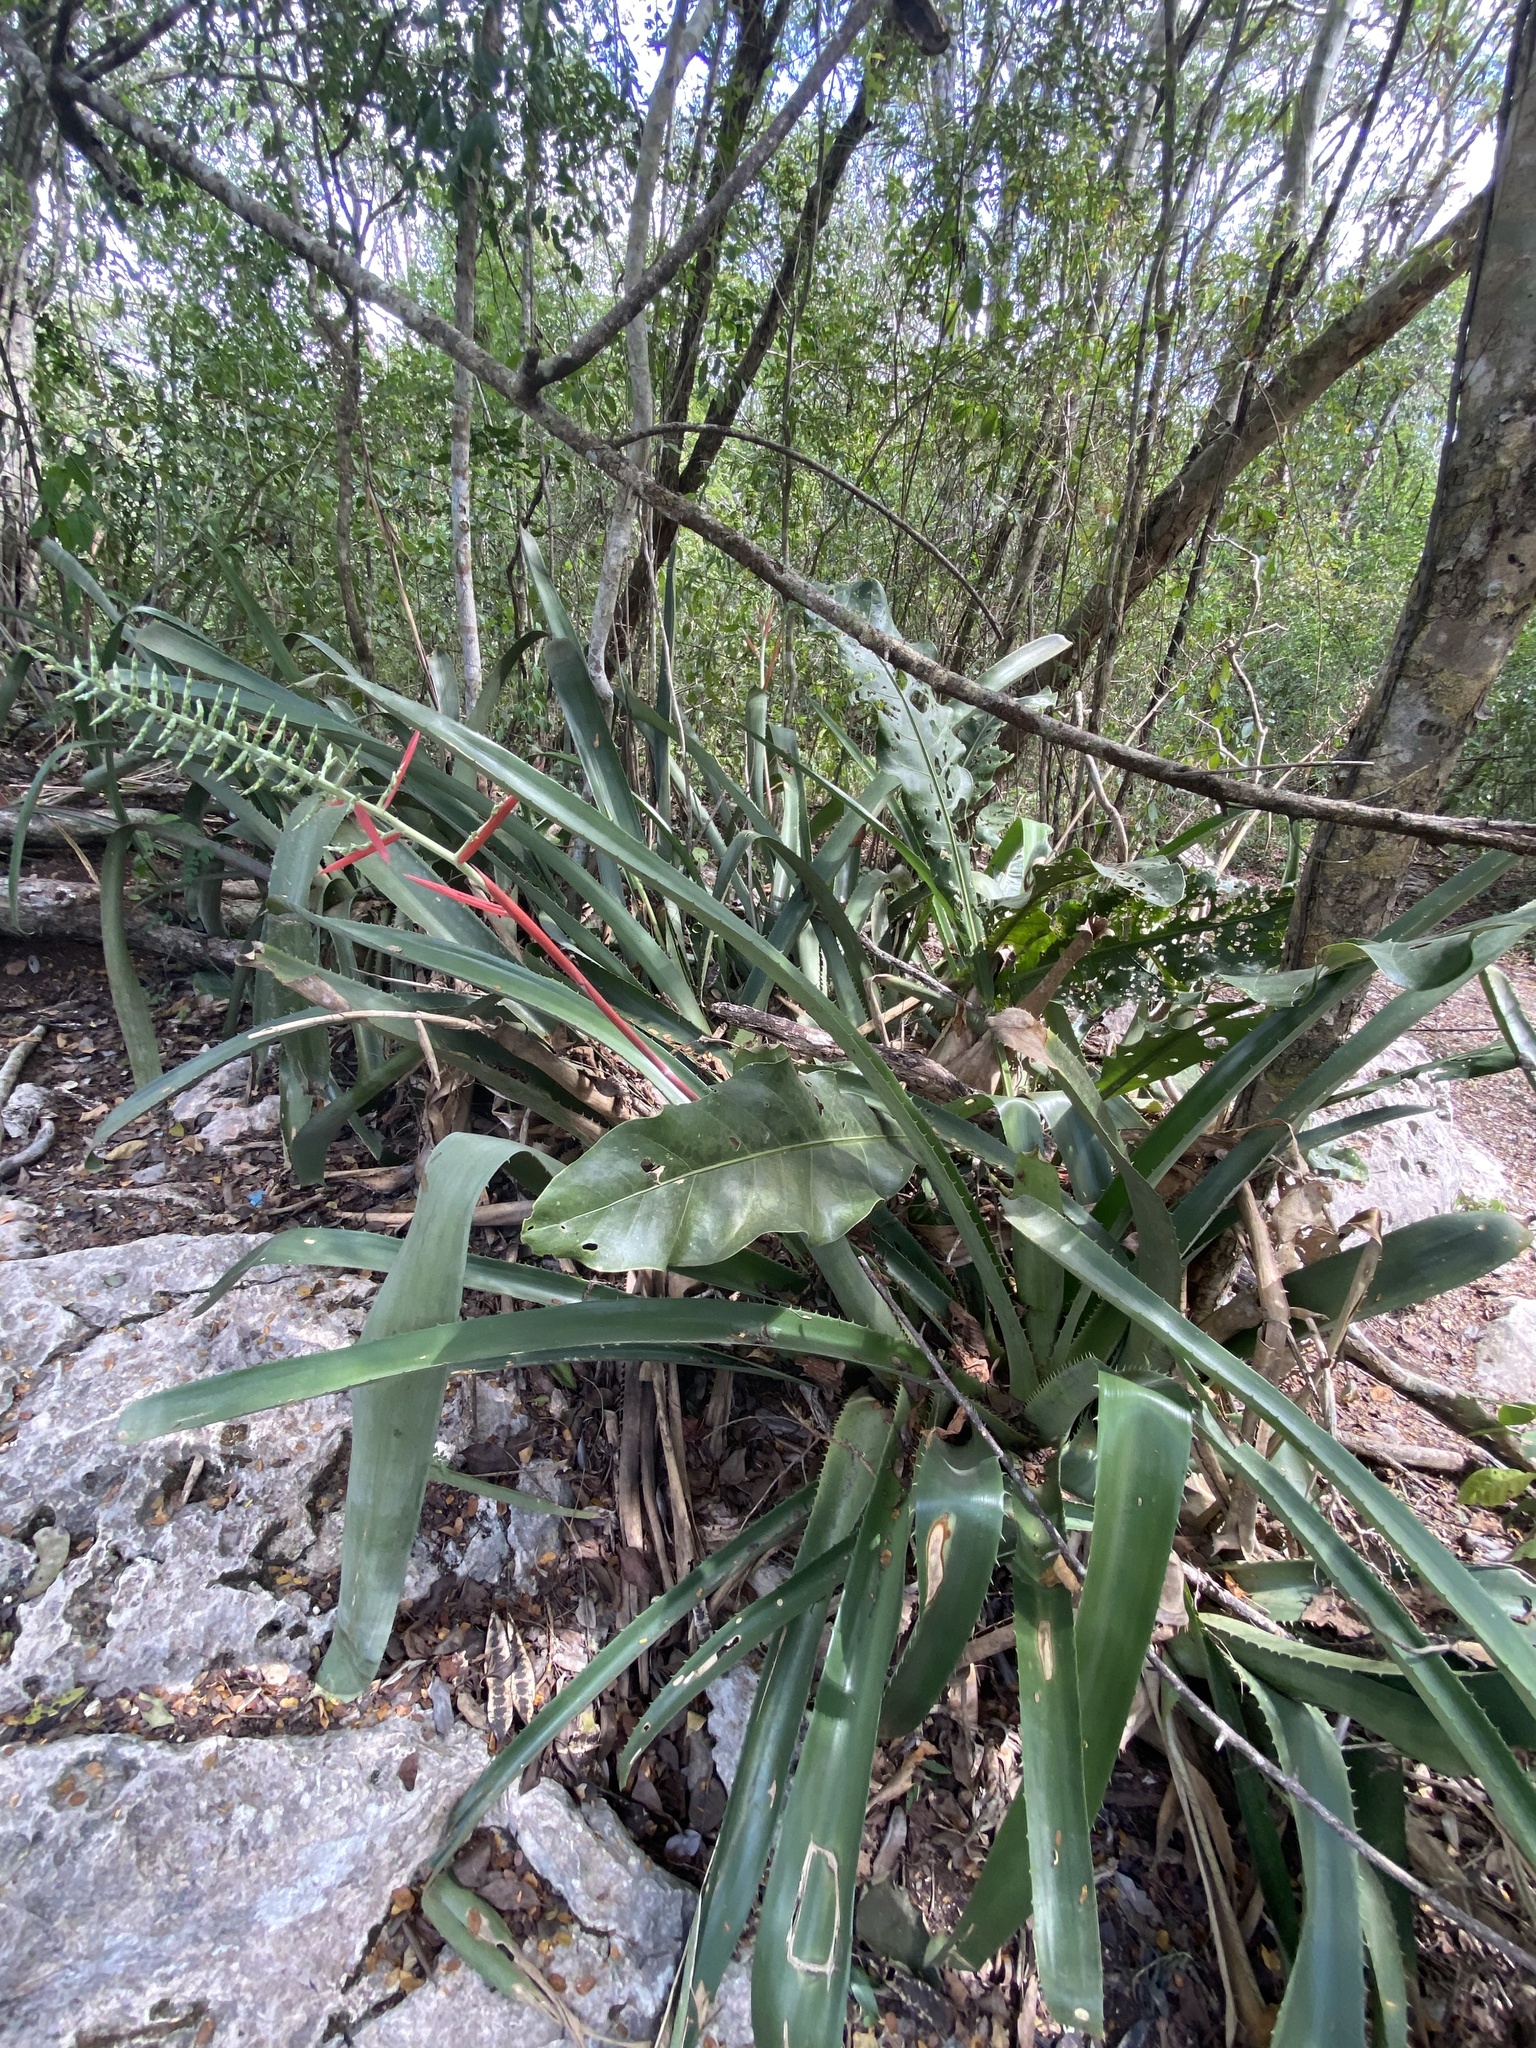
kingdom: Plantae
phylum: Tracheophyta
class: Liliopsida
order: Poales
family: Bromeliaceae
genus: Aechmea
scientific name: Aechmea bracteata
